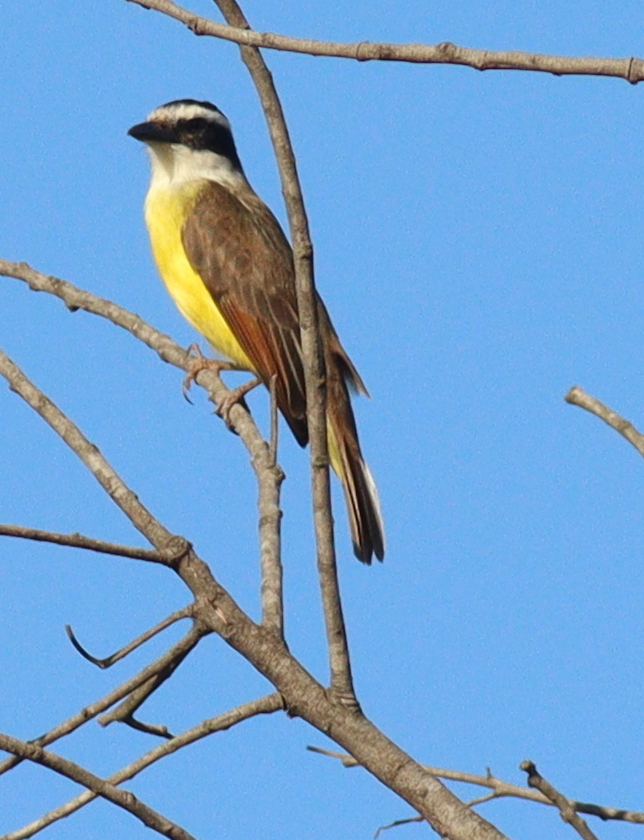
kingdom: Animalia
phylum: Chordata
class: Aves
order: Passeriformes
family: Tyrannidae
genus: Pitangus
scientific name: Pitangus sulphuratus
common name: Great kiskadee
